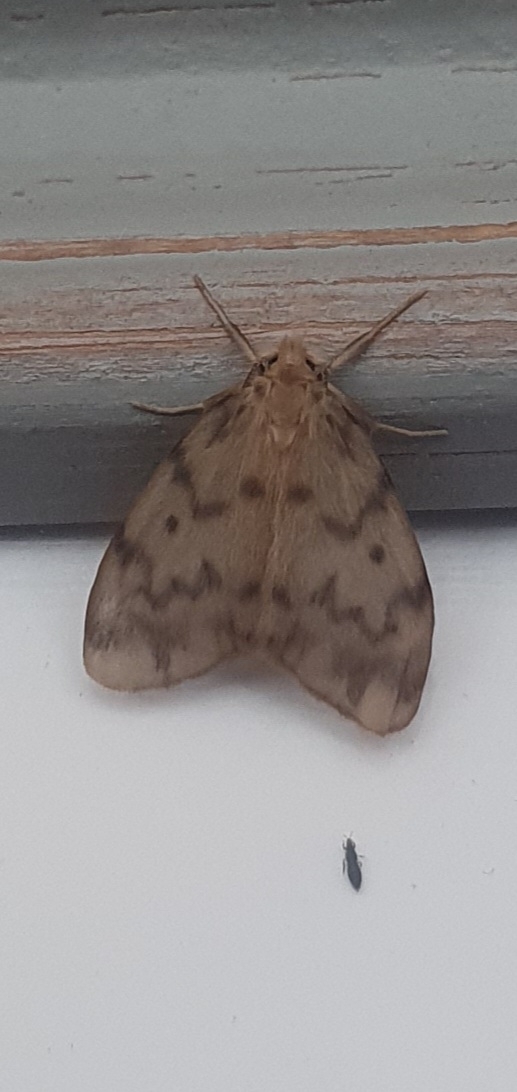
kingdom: Animalia
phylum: Arthropoda
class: Insecta
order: Lepidoptera
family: Erebidae
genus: Nudaria
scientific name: Nudaria mundana
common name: Muslin footman
